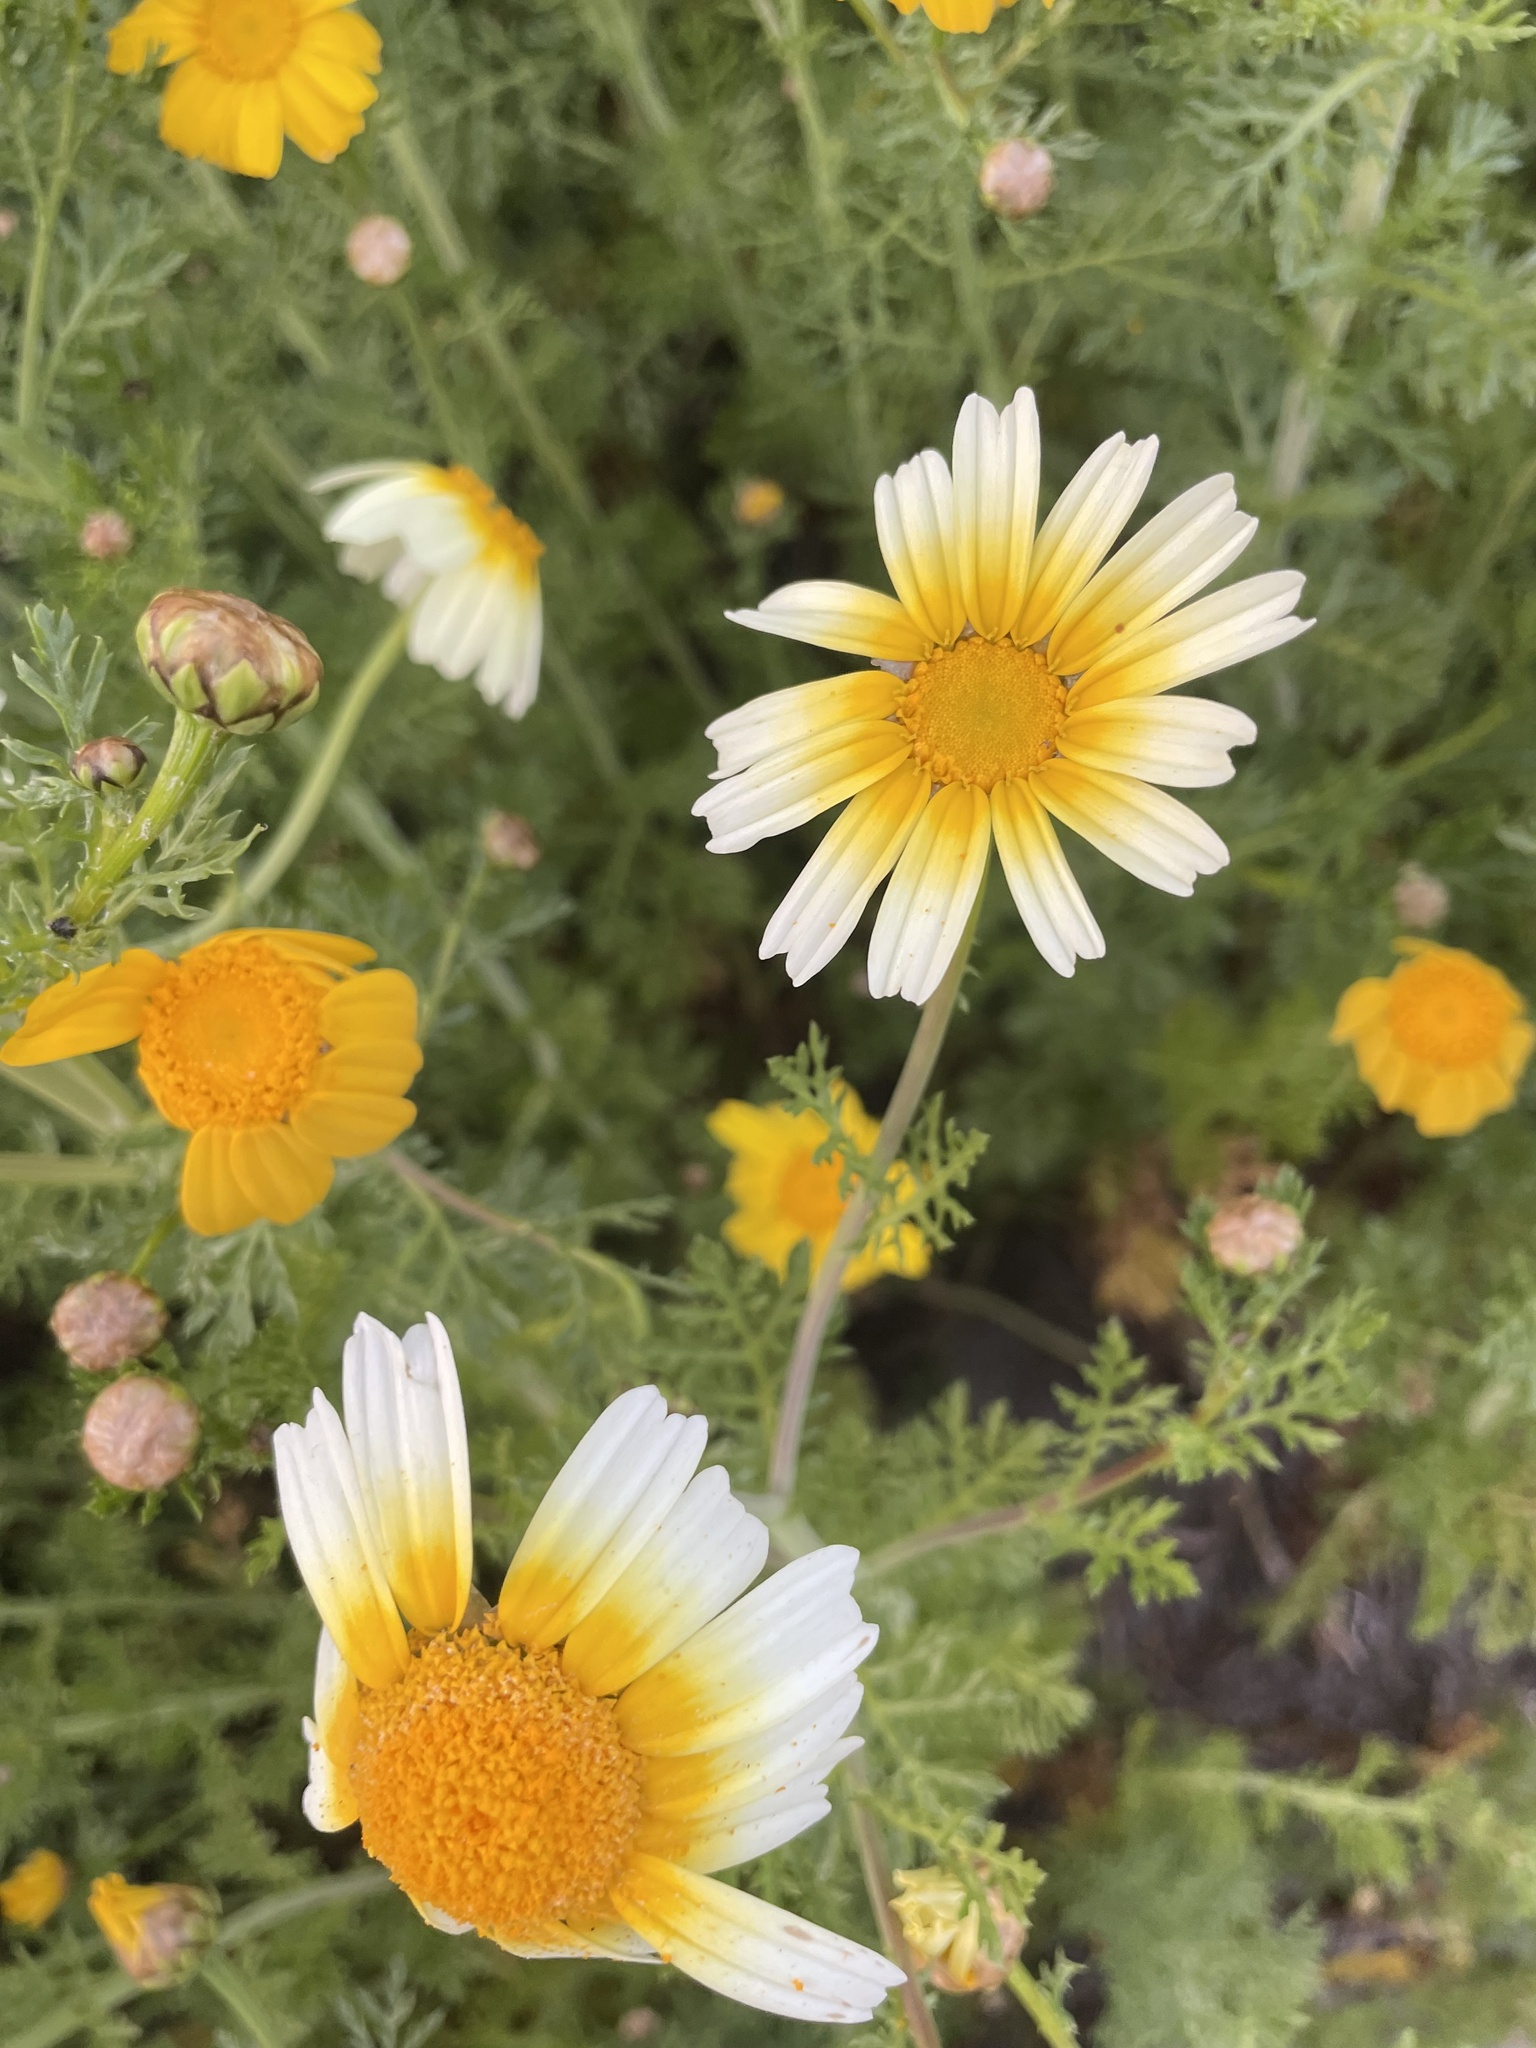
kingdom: Plantae
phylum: Tracheophyta
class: Magnoliopsida
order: Asterales
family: Asteraceae
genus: Glebionis
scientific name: Glebionis coronaria
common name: Crowndaisy
